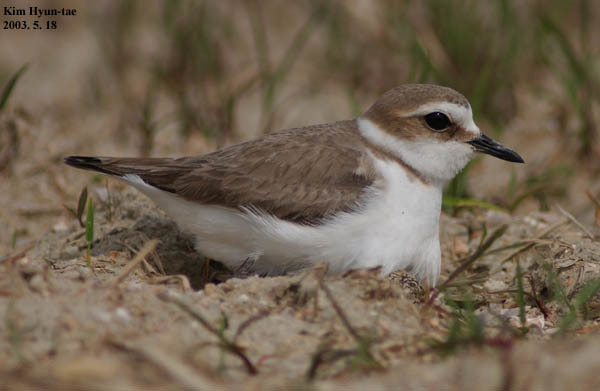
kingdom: Animalia
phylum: Chordata
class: Aves
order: Charadriiformes
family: Charadriidae
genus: Charadrius
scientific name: Charadrius alexandrinus
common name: Kentish plover
